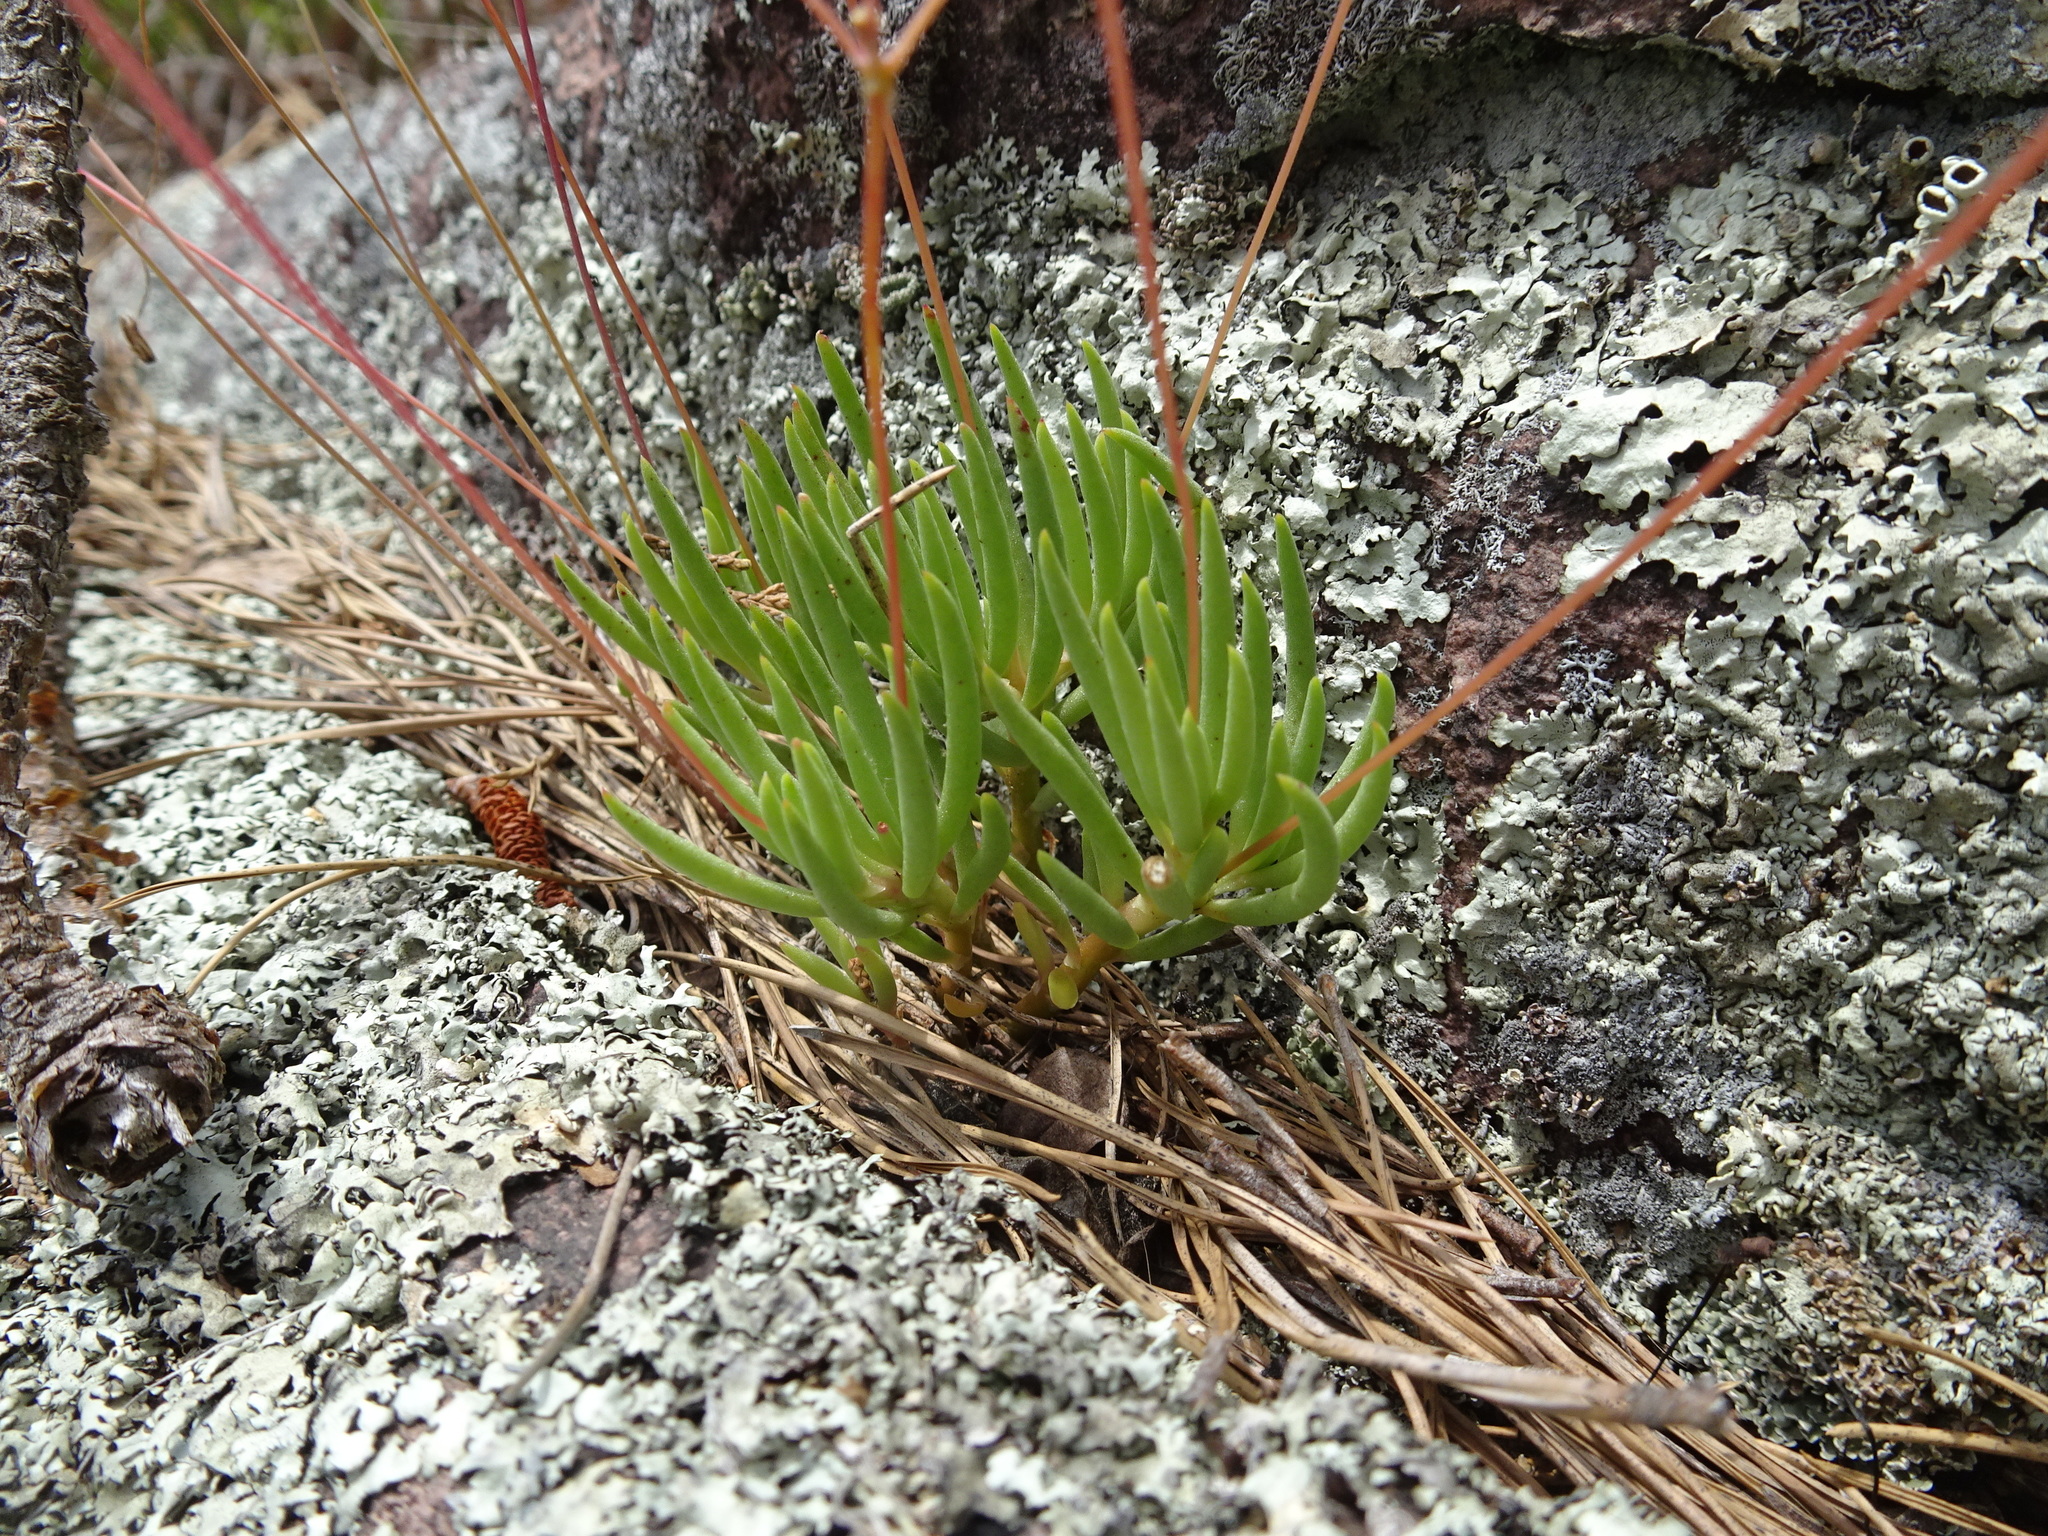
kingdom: Plantae
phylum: Tracheophyta
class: Magnoliopsida
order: Caryophyllales
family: Montiaceae
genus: Phemeranthus
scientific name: Phemeranthus calycinus
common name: Largeflower fameflower
